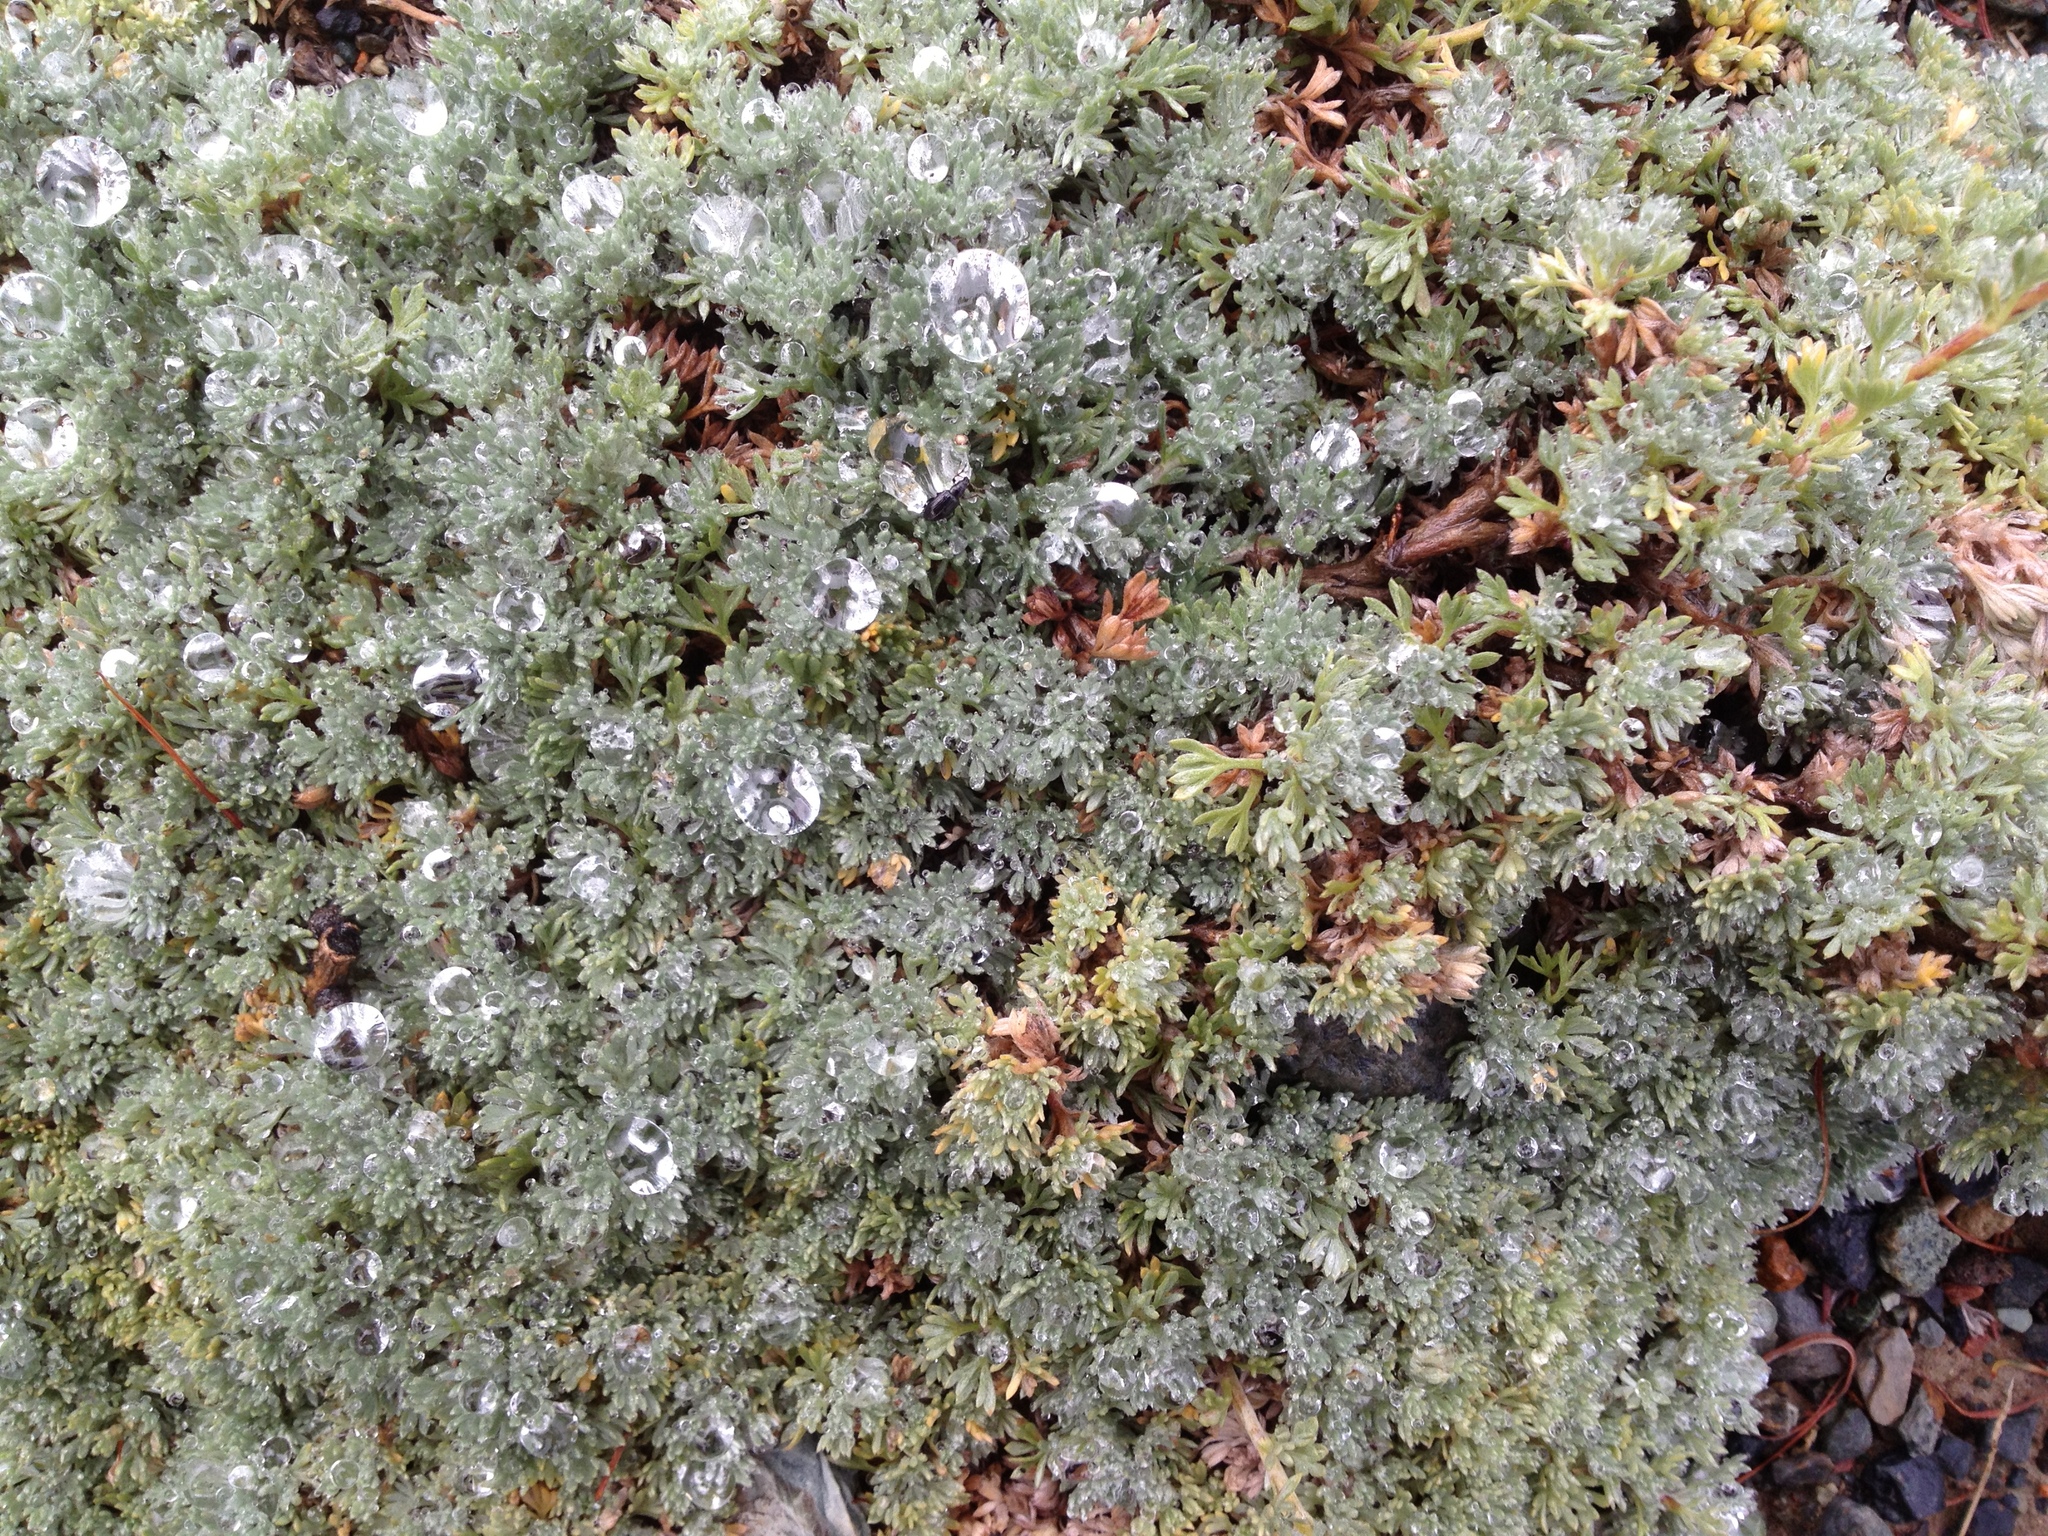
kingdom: Plantae
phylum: Tracheophyta
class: Magnoliopsida
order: Asterales
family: Asteraceae
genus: Artemisia
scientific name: Artemisia frigida
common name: Prairie sagewort
